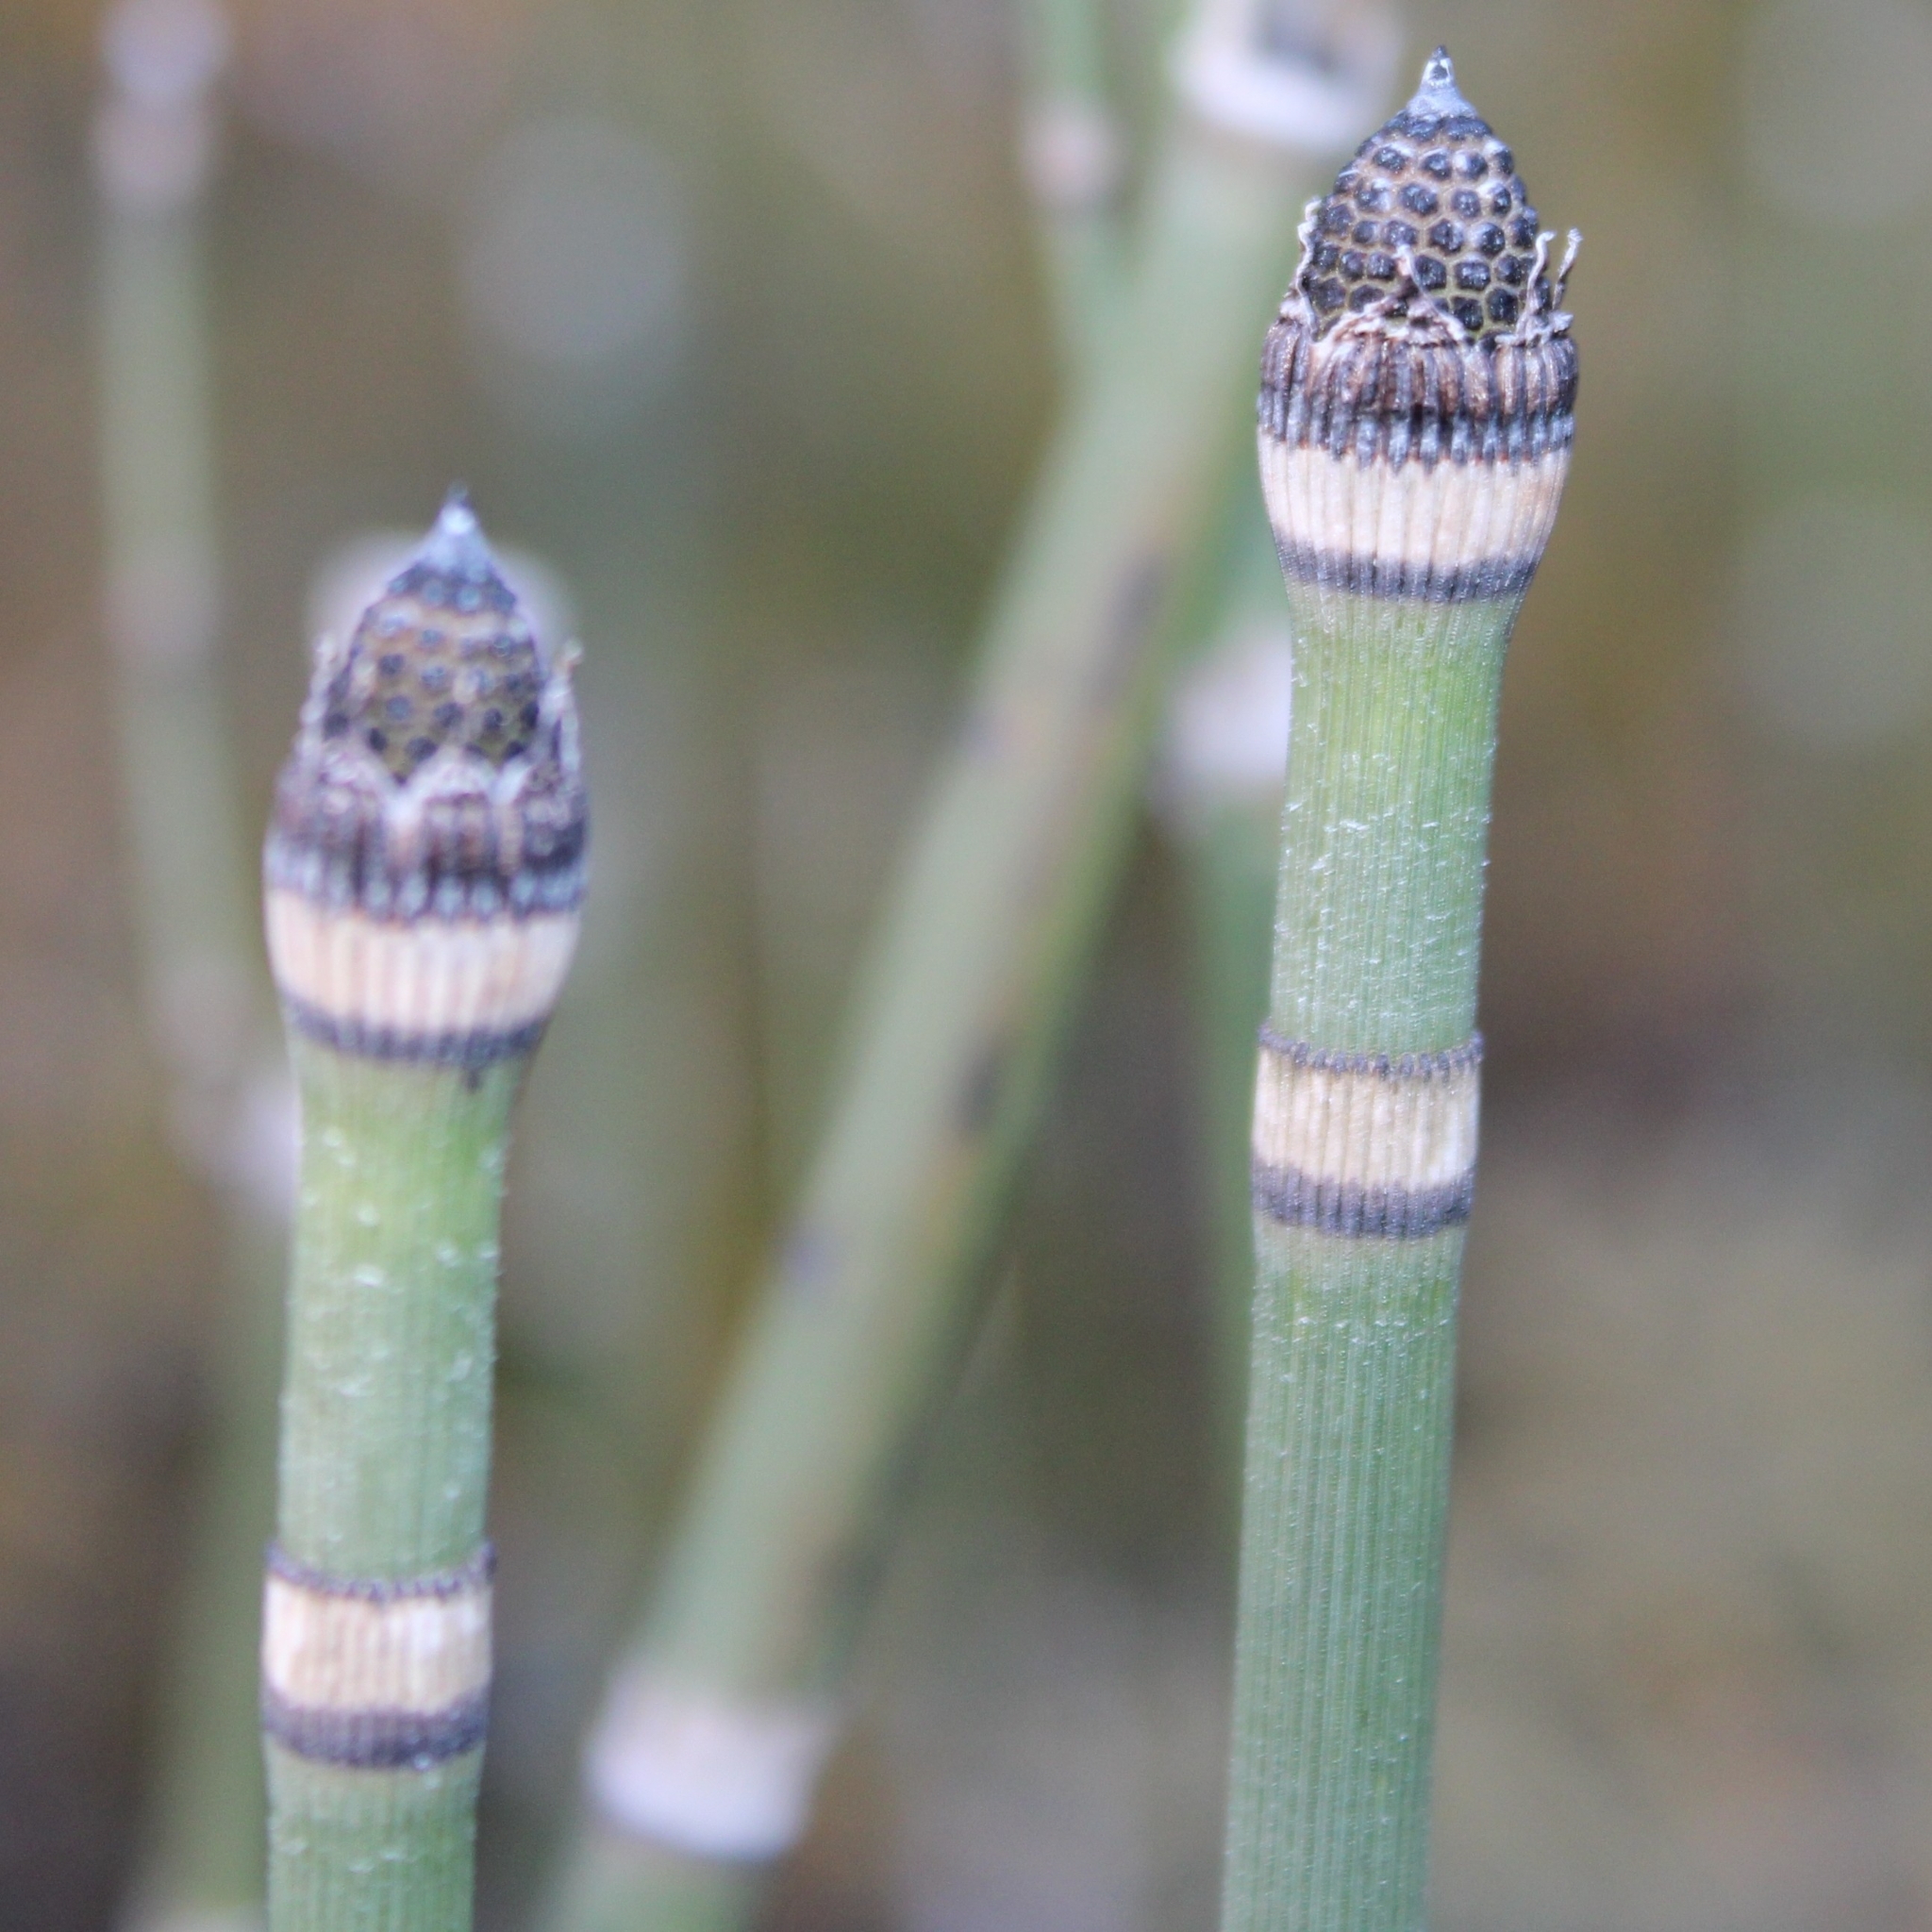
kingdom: Plantae
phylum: Tracheophyta
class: Polypodiopsida
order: Equisetales
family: Equisetaceae
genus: Equisetum
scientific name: Equisetum hyemale
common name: Rough horsetail
